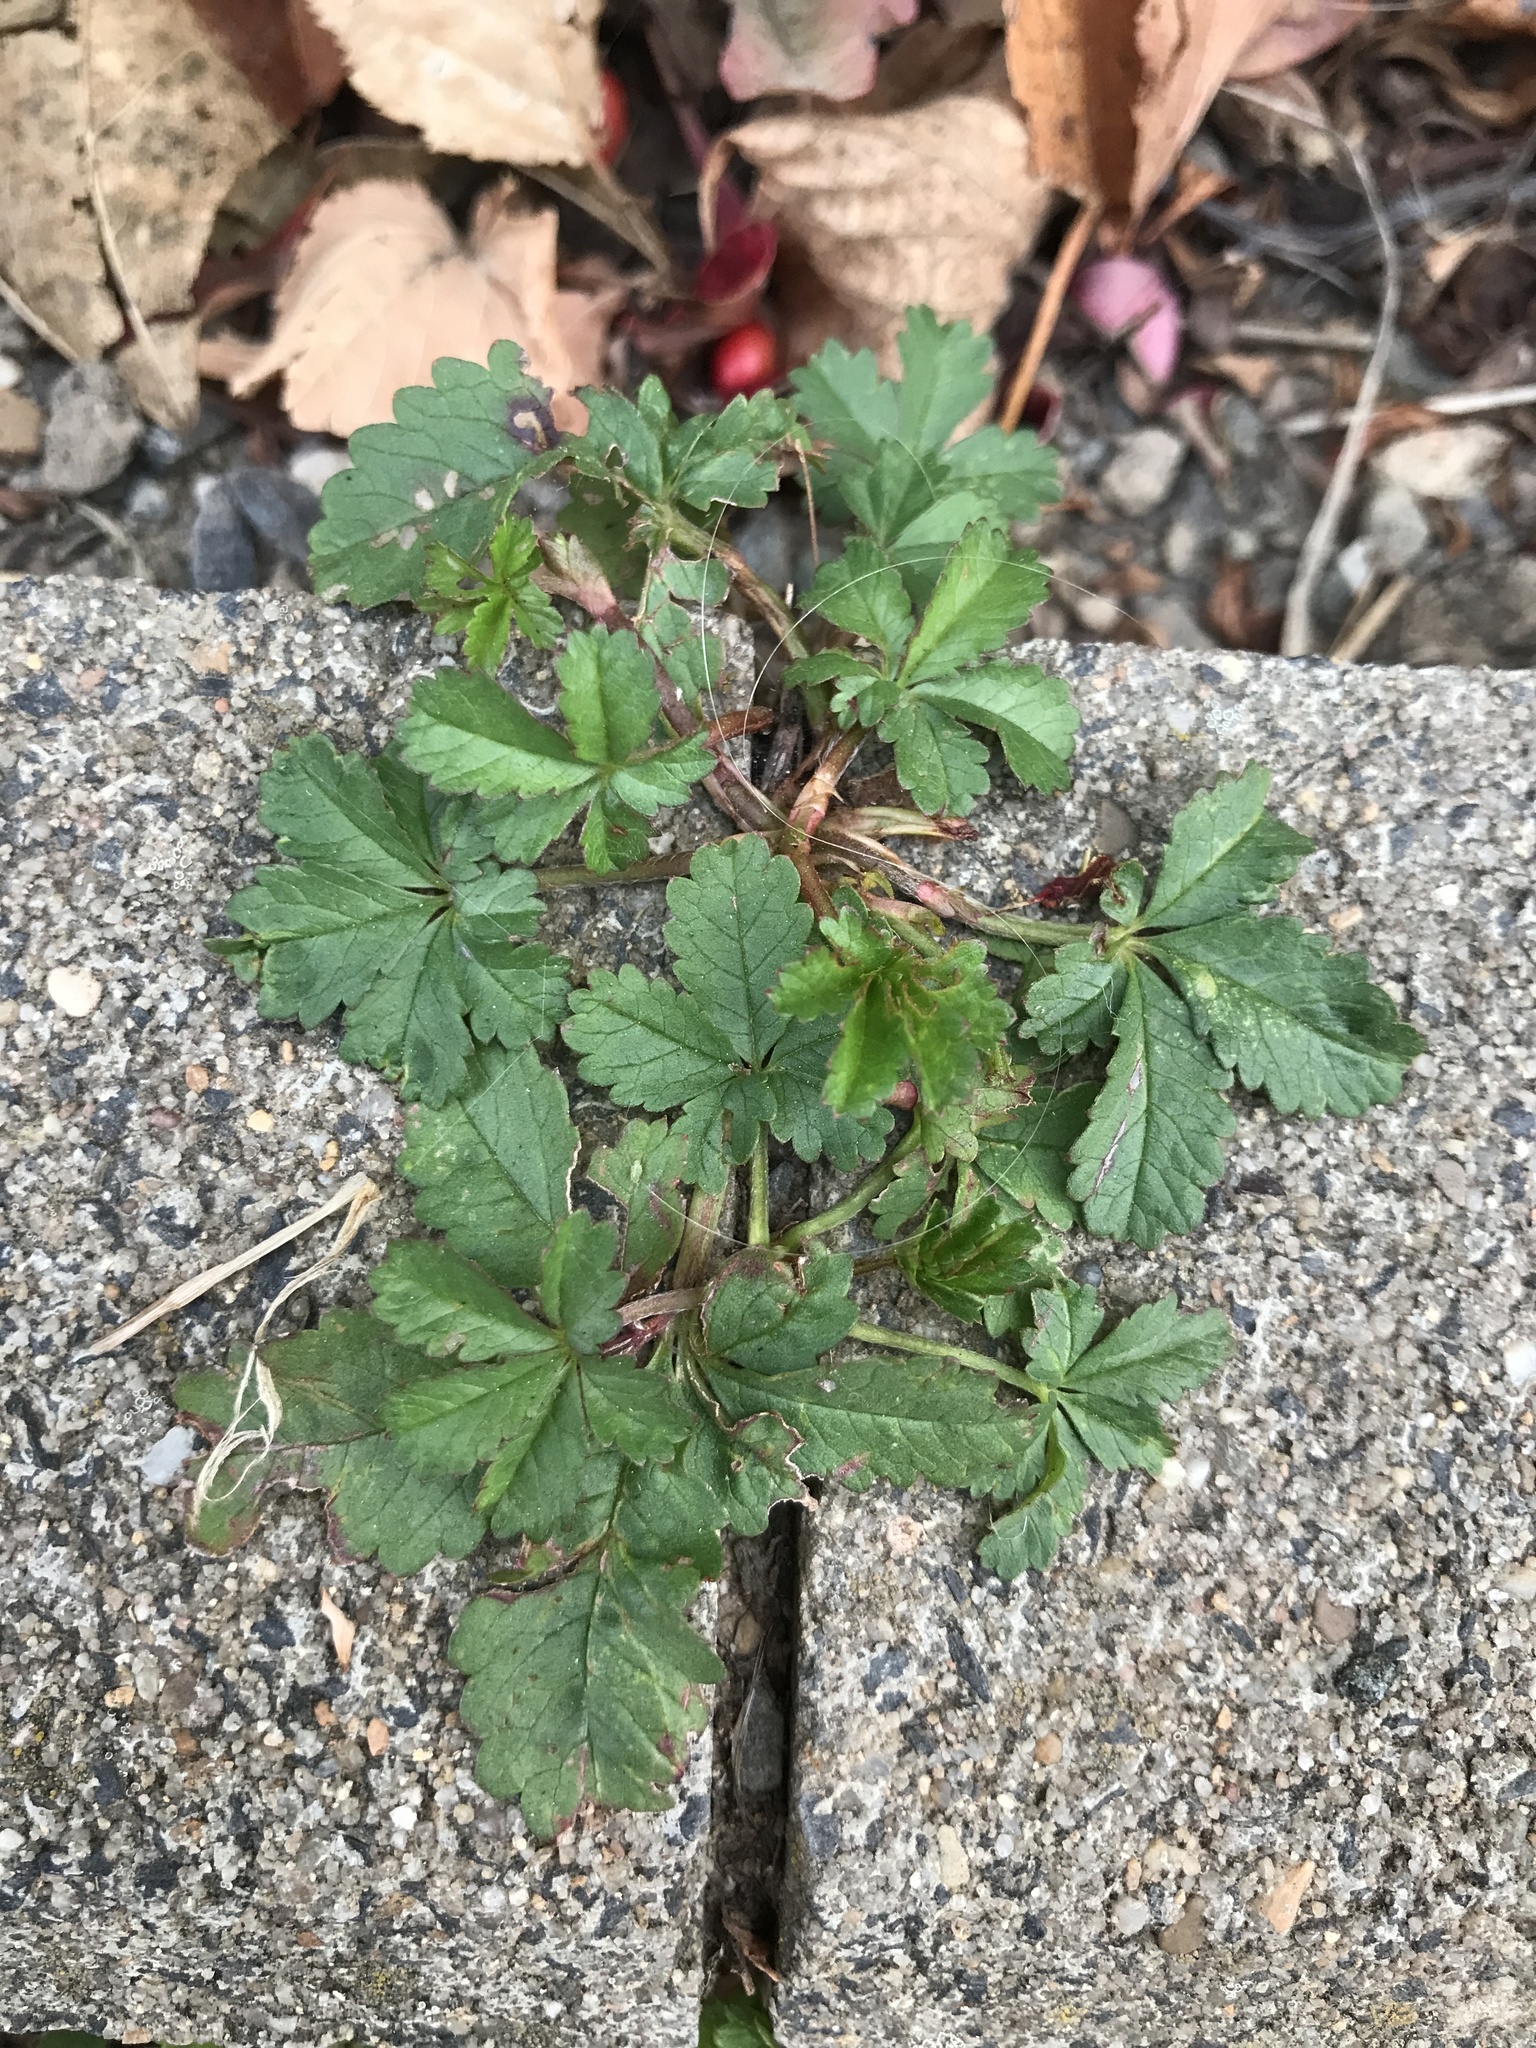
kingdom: Plantae
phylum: Tracheophyta
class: Magnoliopsida
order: Rosales
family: Rosaceae
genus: Potentilla
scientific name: Potentilla reptans
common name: Creeping cinquefoil
